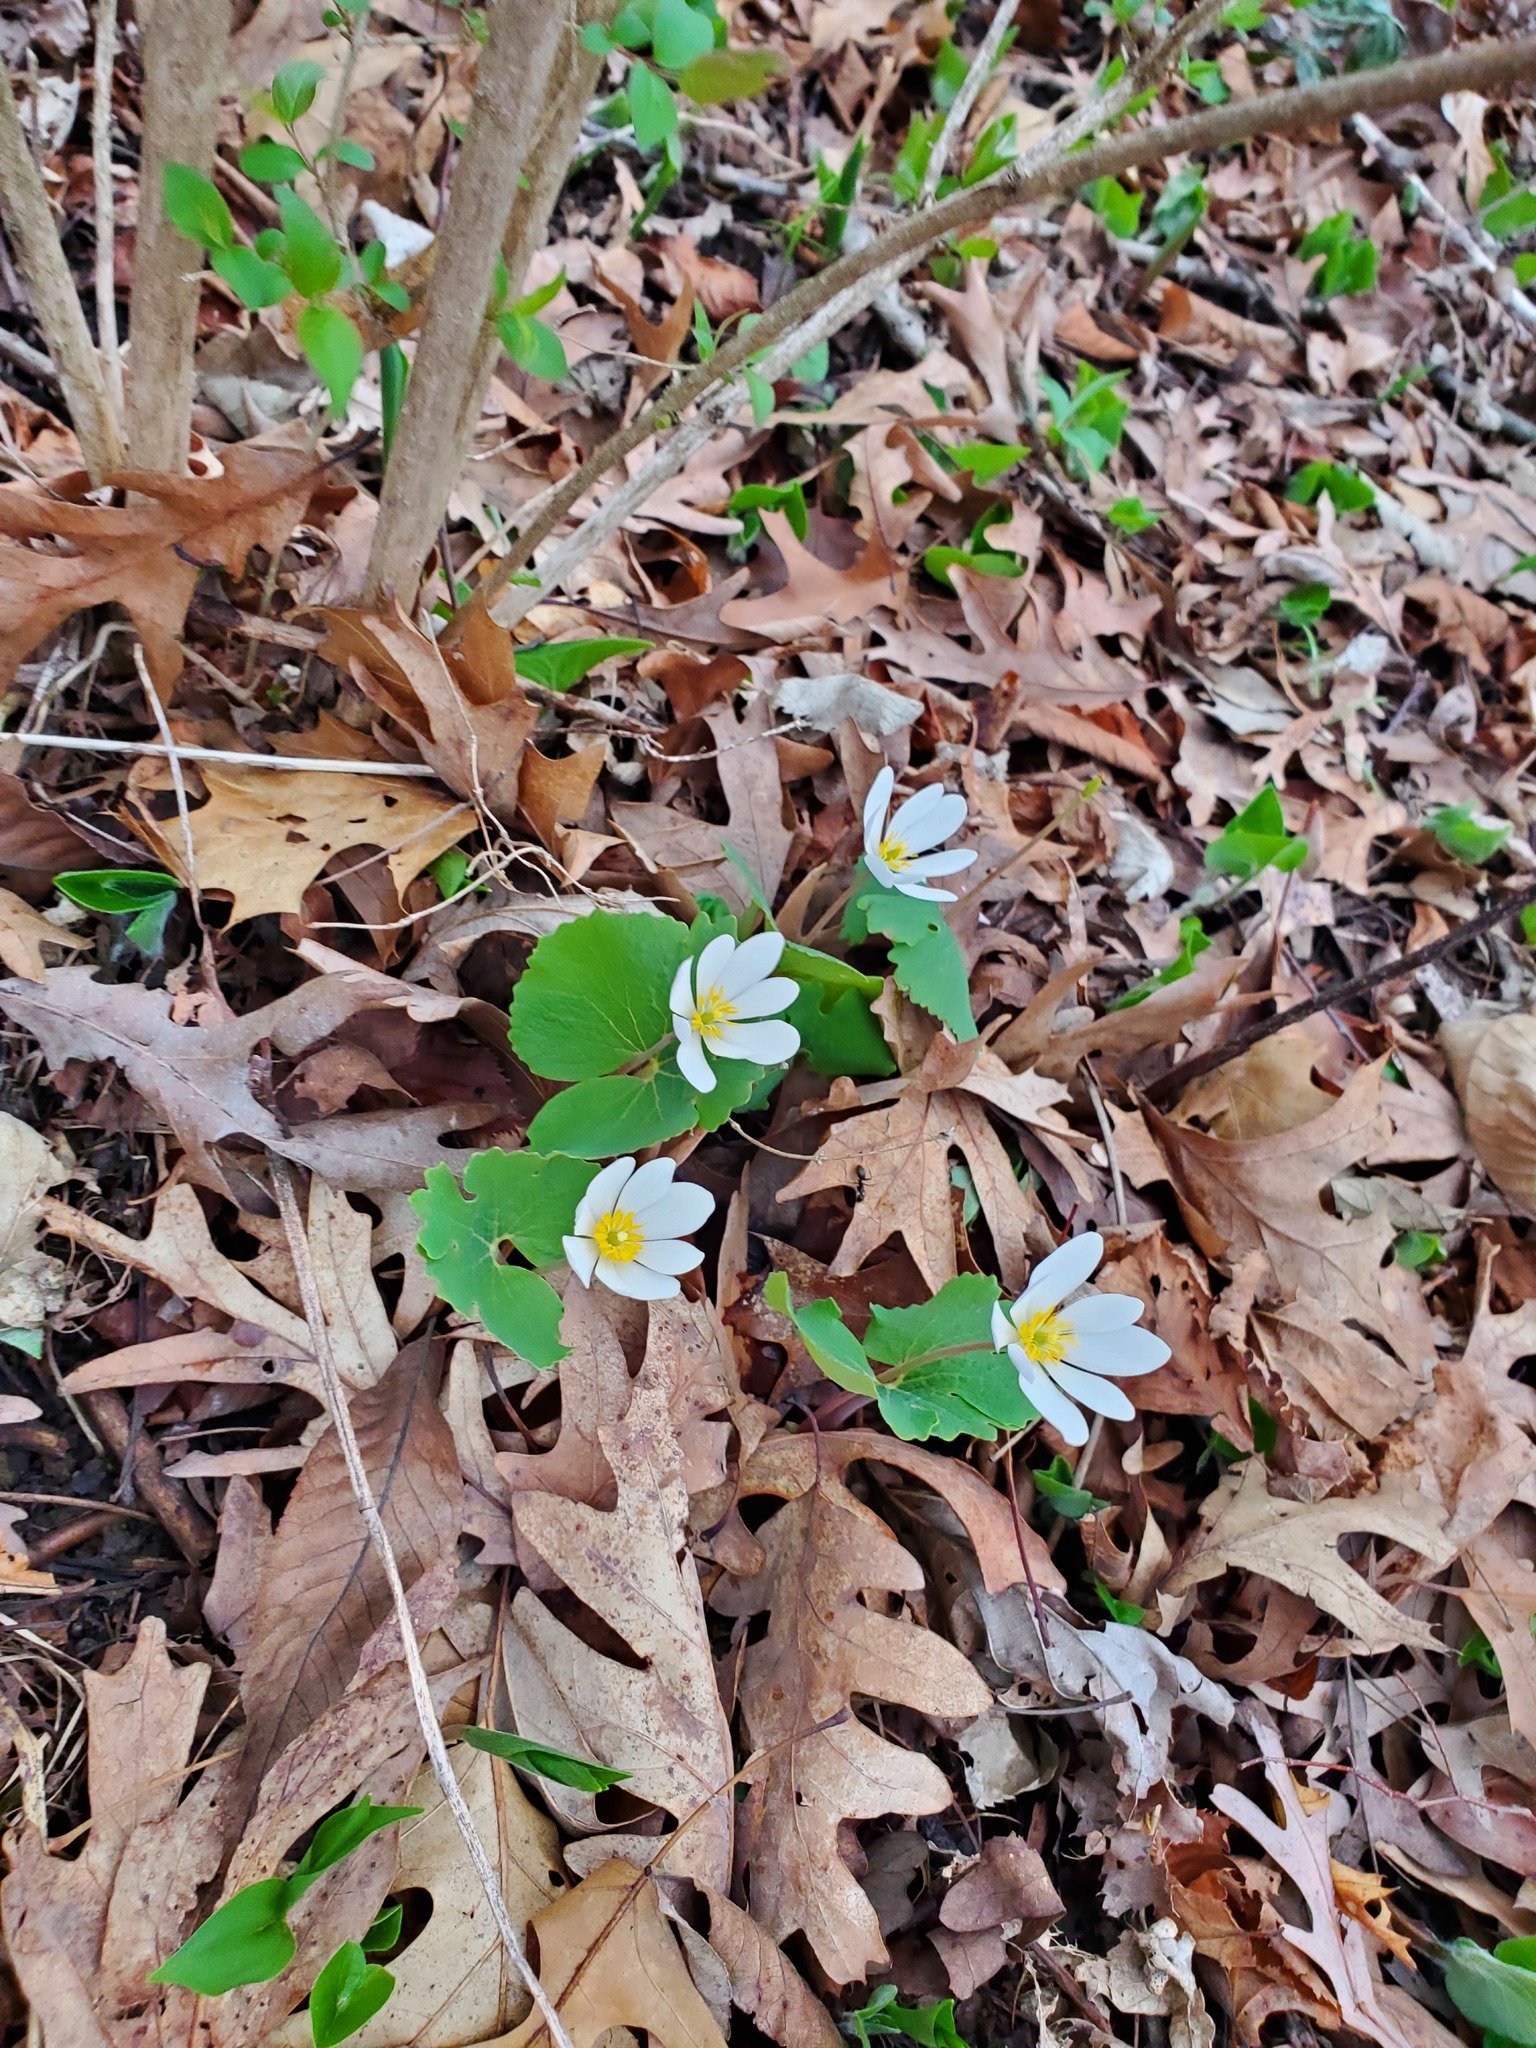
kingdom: Plantae
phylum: Tracheophyta
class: Magnoliopsida
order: Ranunculales
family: Papaveraceae
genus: Sanguinaria
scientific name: Sanguinaria canadensis
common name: Bloodroot
